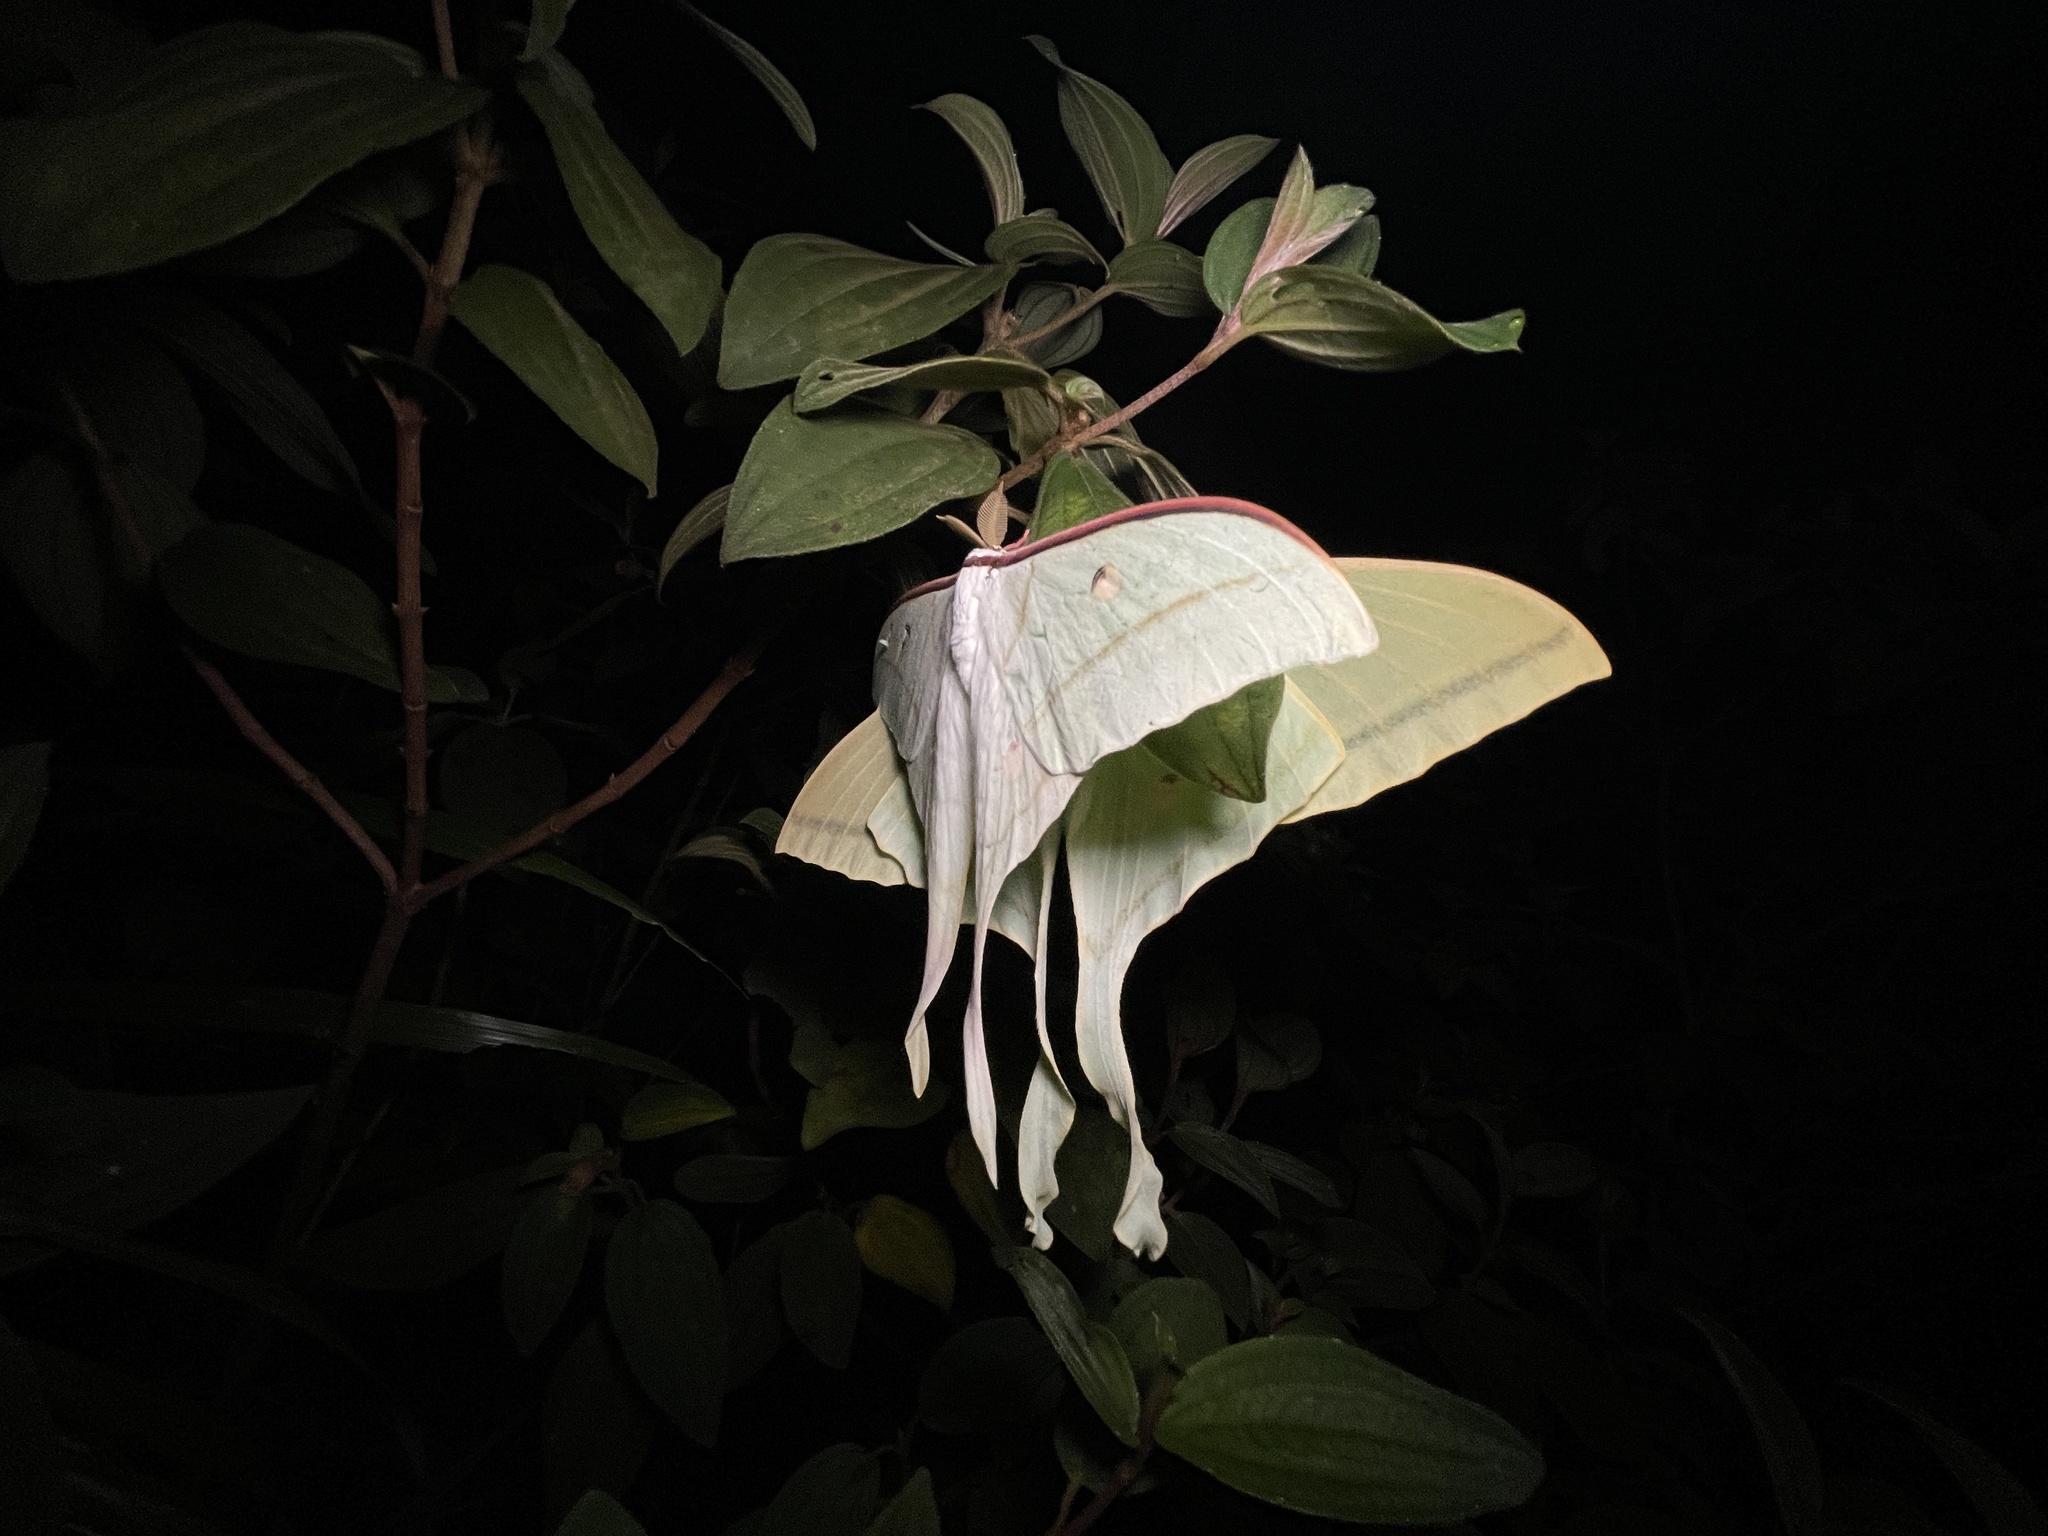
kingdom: Animalia
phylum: Arthropoda
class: Insecta
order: Lepidoptera
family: Saturniidae
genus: Actias
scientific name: Actias ningpoana
